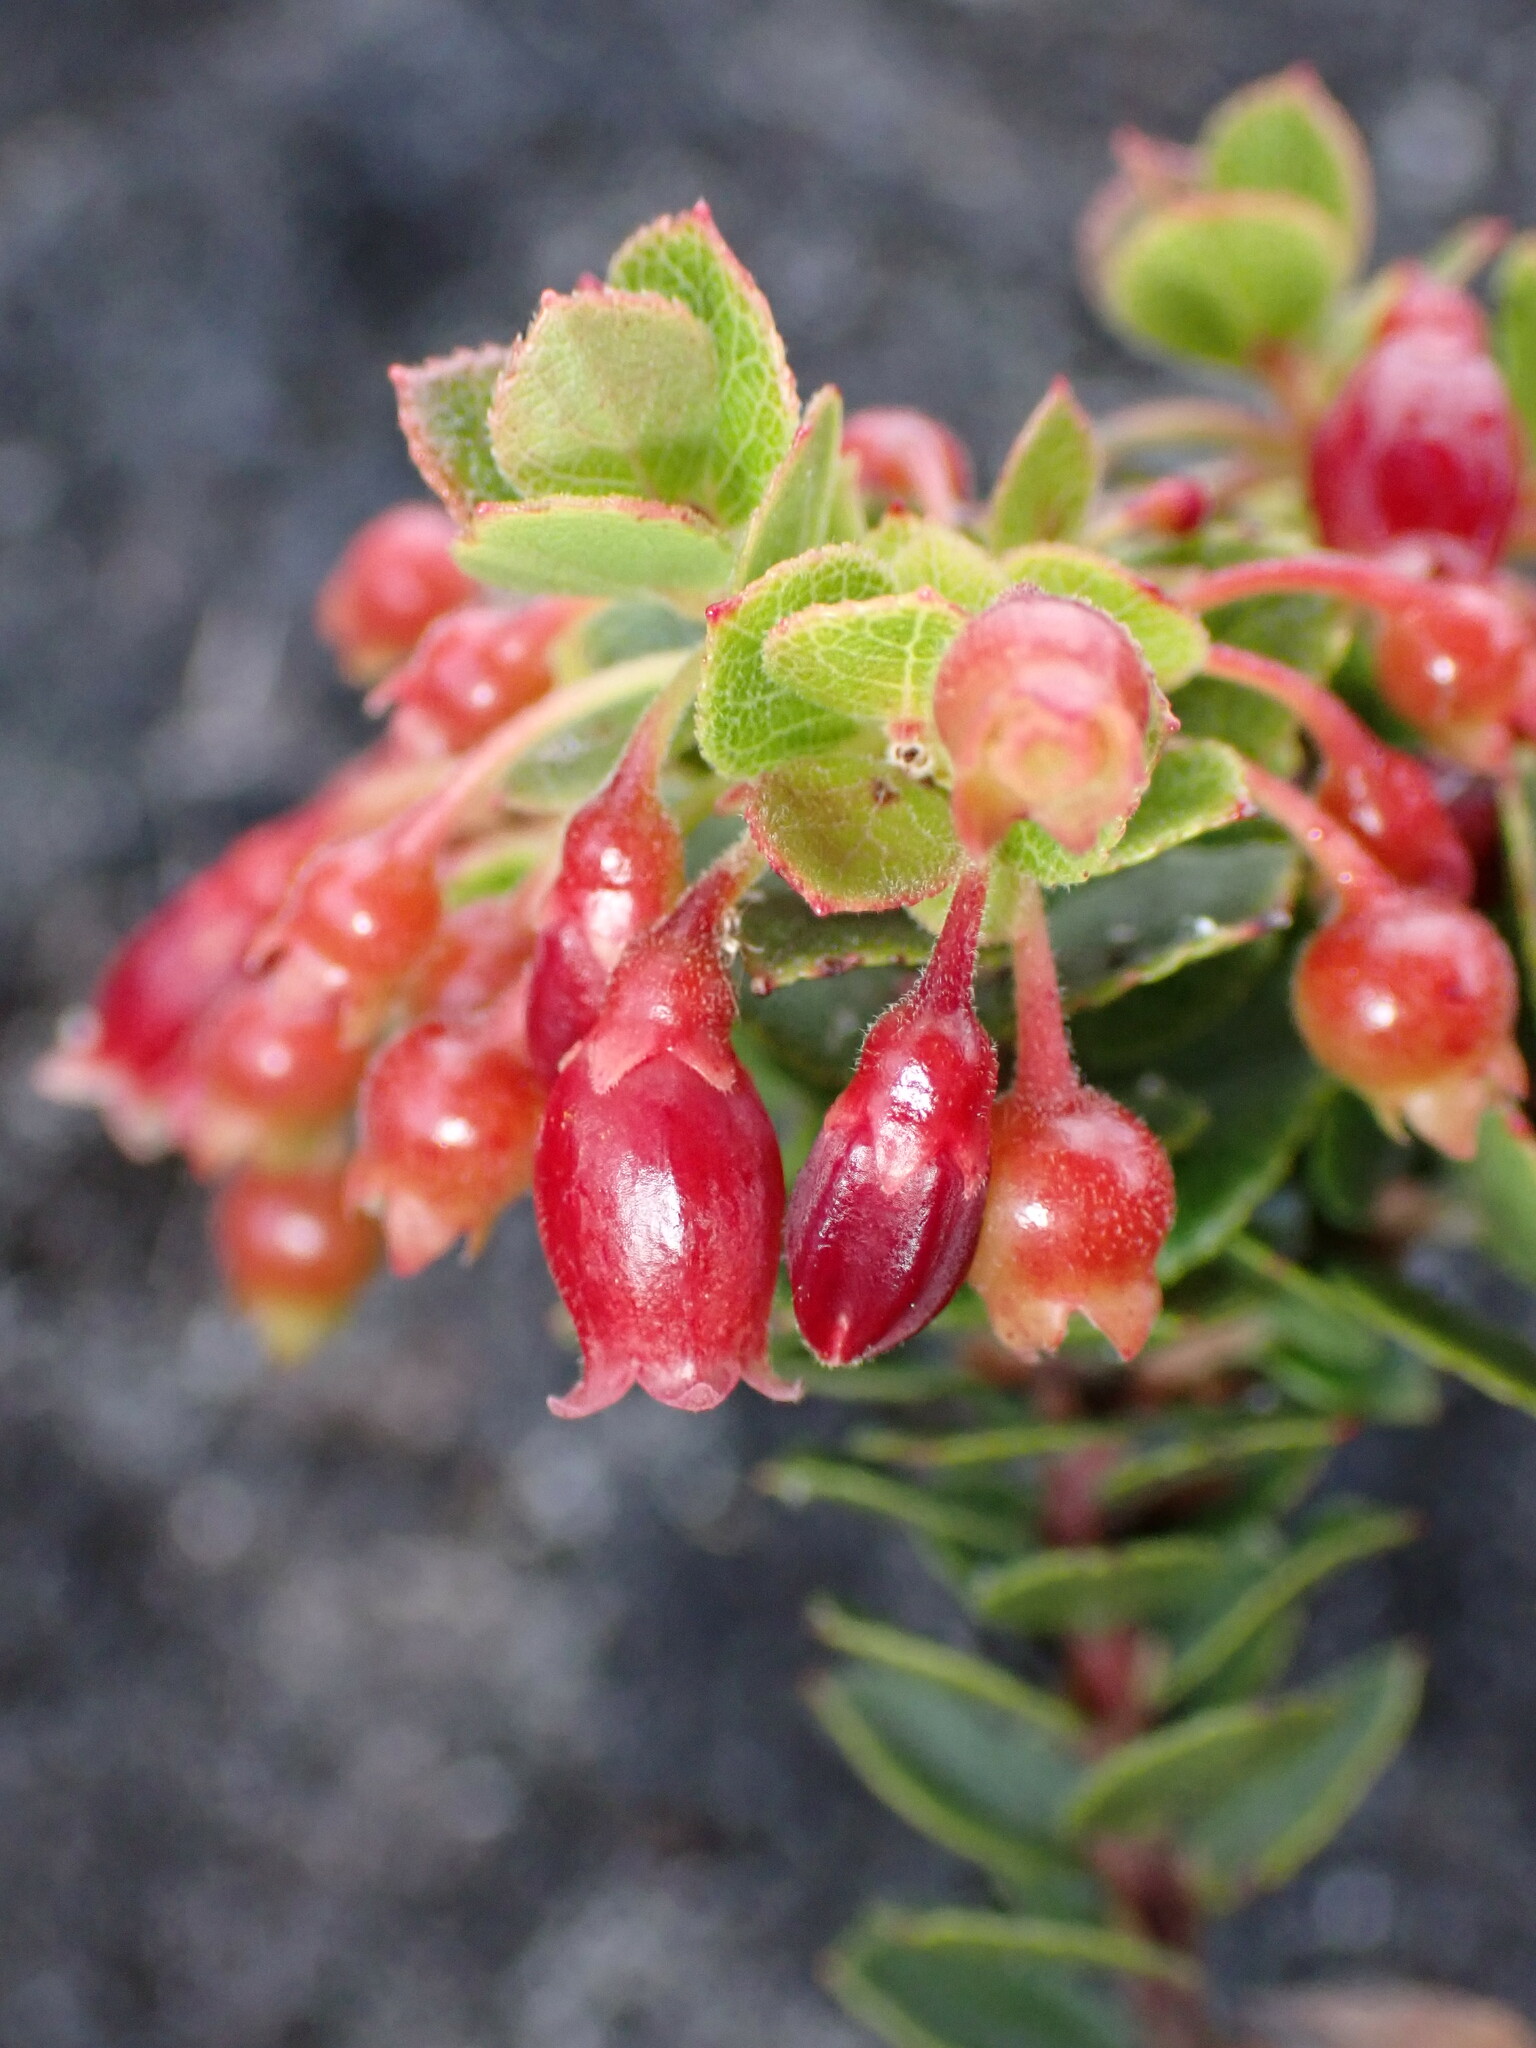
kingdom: Plantae
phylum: Tracheophyta
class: Magnoliopsida
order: Ericales
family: Ericaceae
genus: Vaccinium
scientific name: Vaccinium reticulatum
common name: Ohelo
